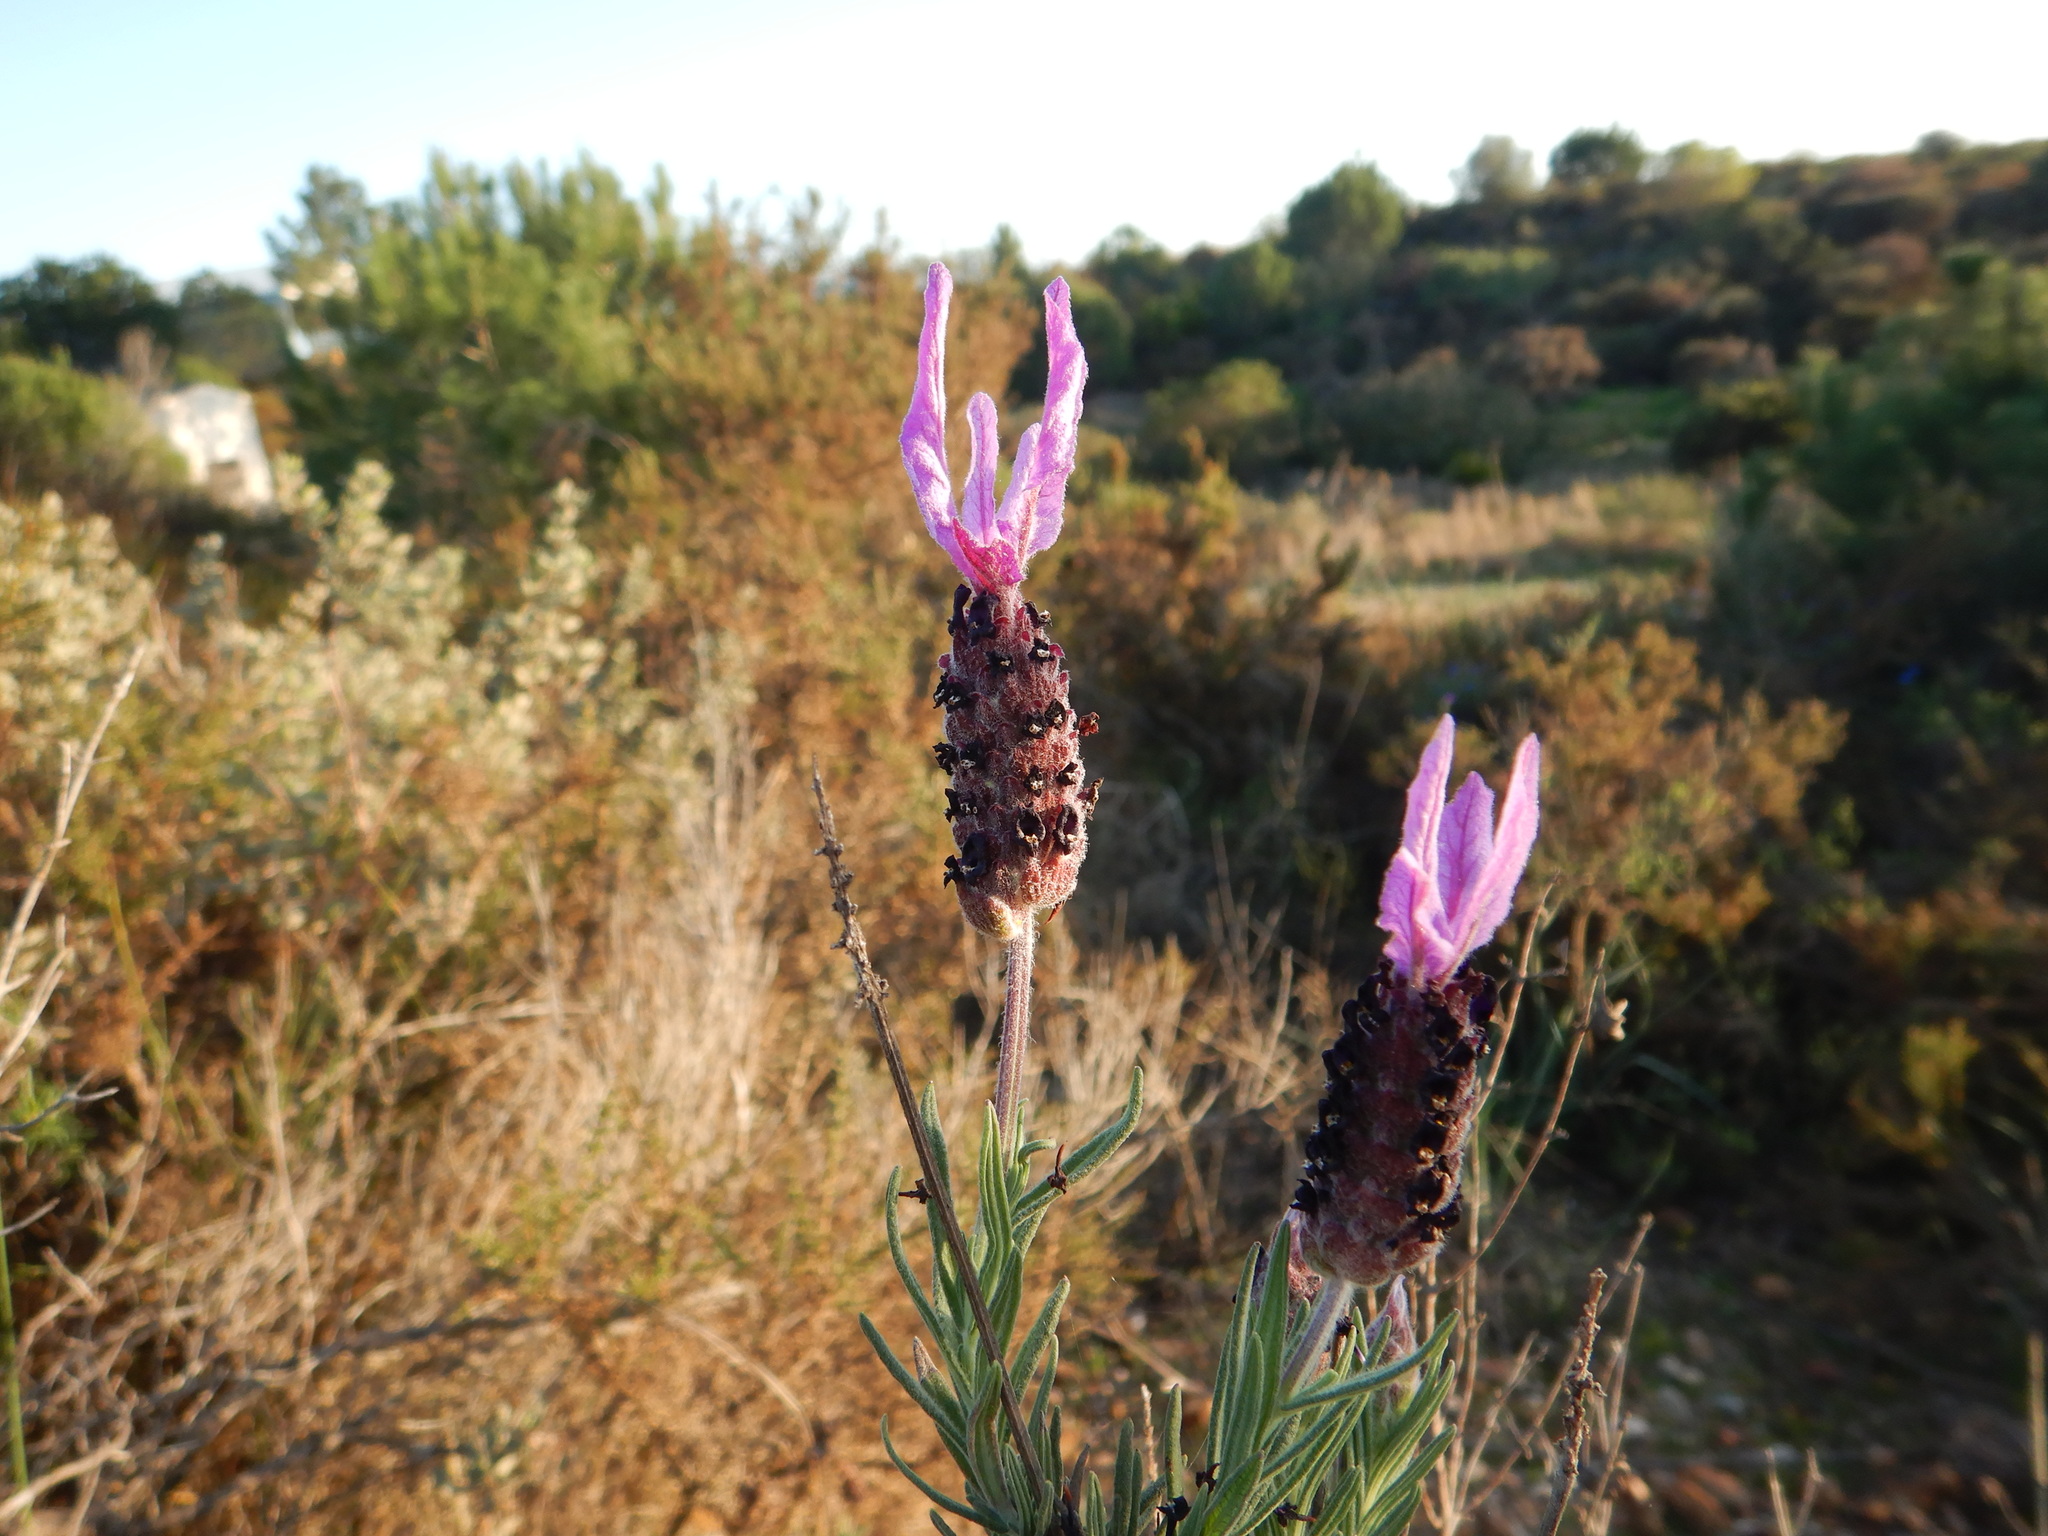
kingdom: Plantae
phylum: Tracheophyta
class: Magnoliopsida
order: Lamiales
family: Lamiaceae
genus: Lavandula
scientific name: Lavandula stoechas
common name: French lavender
